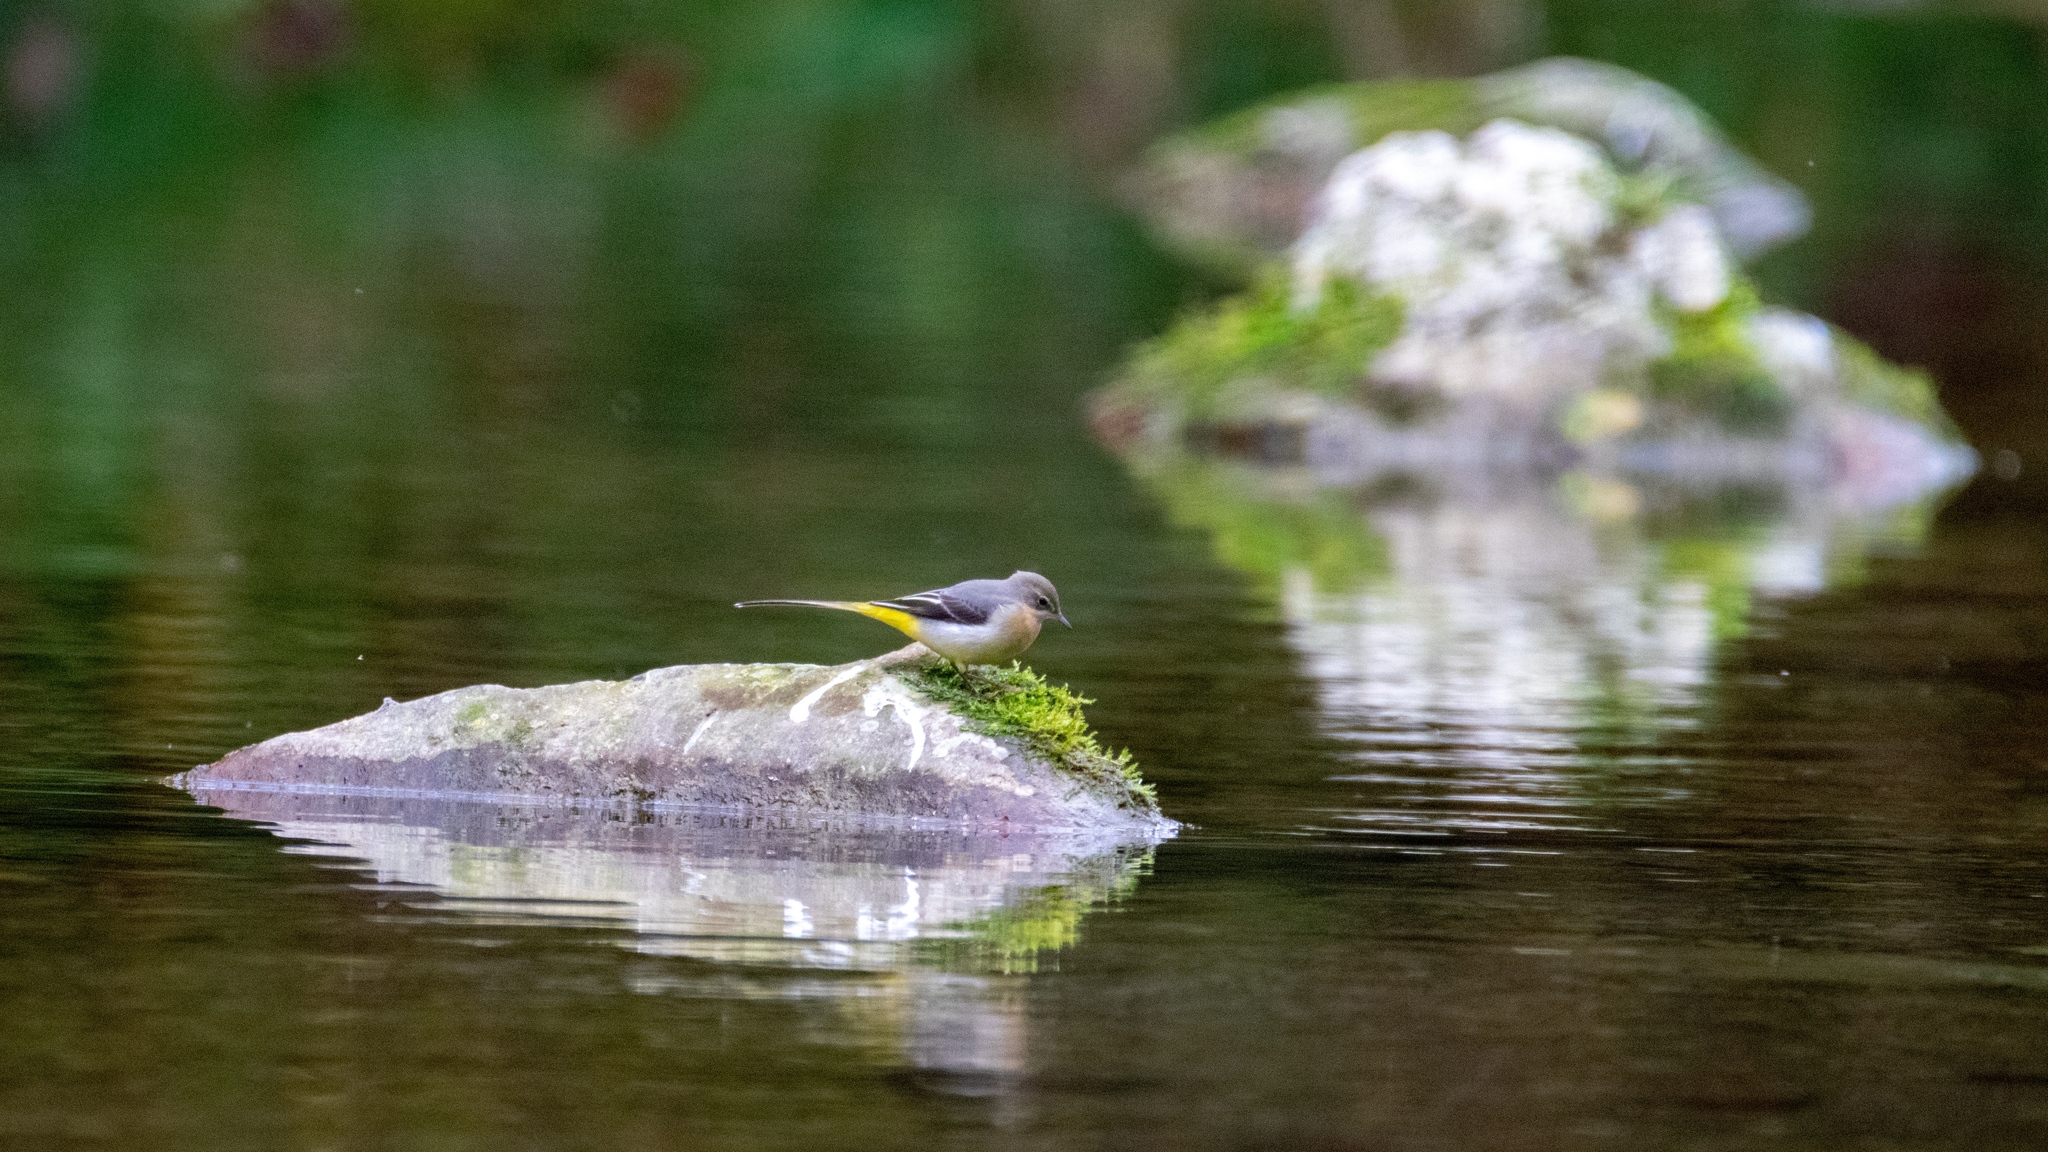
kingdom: Animalia
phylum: Chordata
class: Aves
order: Passeriformes
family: Motacillidae
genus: Motacilla
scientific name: Motacilla cinerea
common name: Grey wagtail
